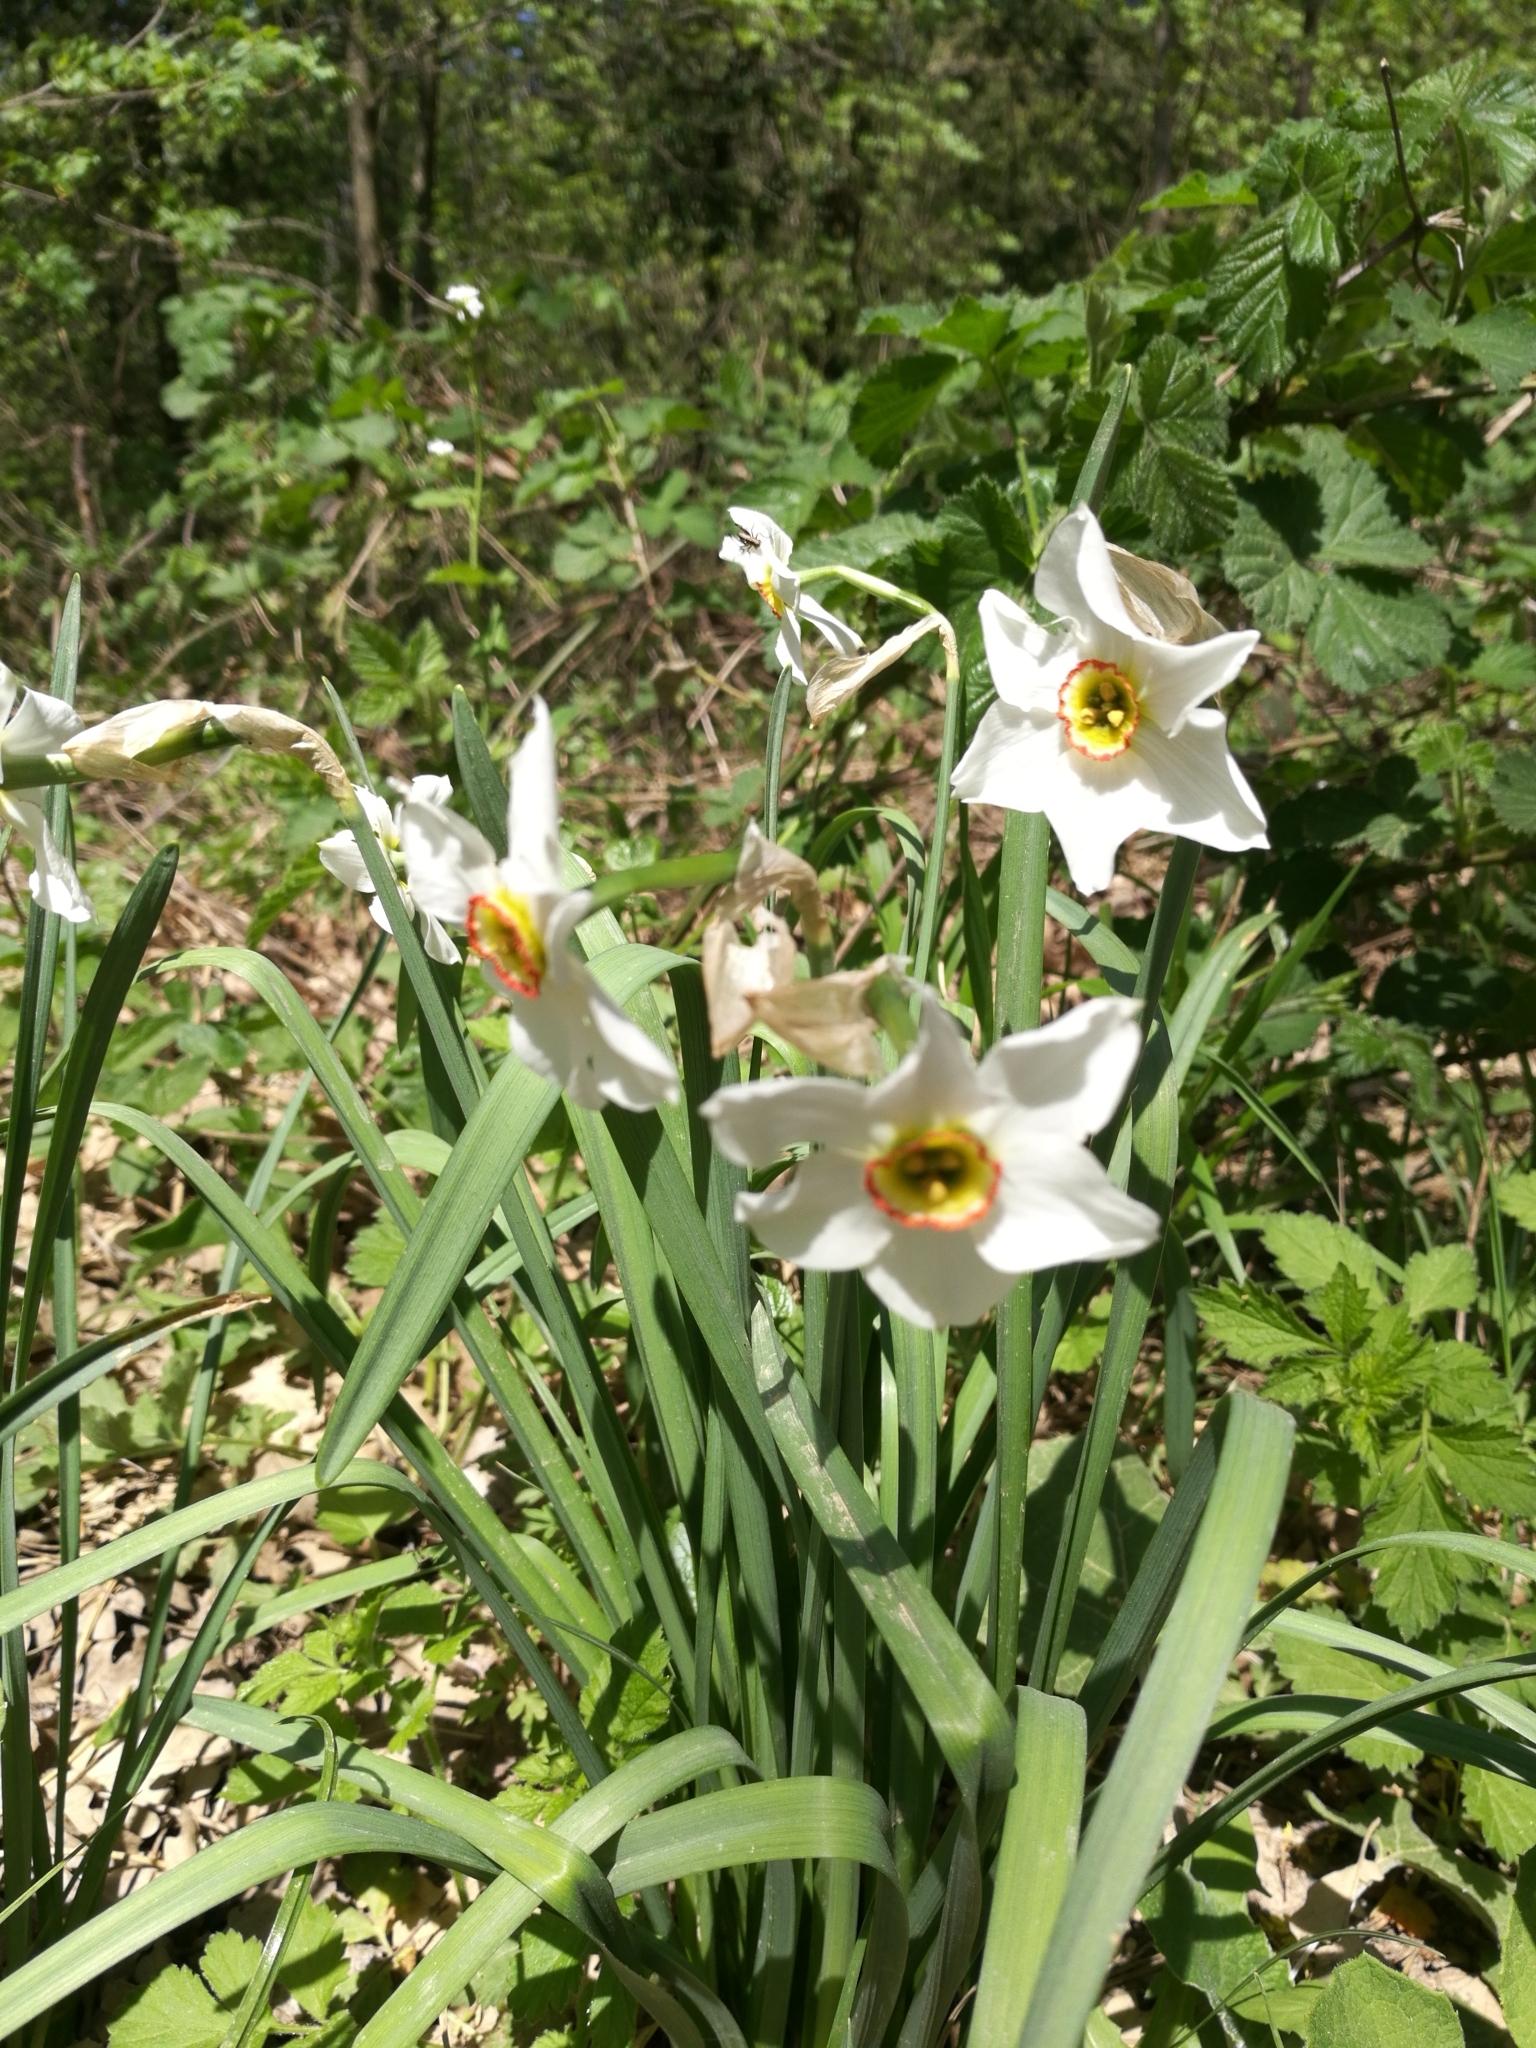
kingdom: Plantae
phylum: Tracheophyta
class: Liliopsida
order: Asparagales
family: Amaryllidaceae
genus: Narcissus
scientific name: Narcissus poeticus
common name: Pheasant's-eye daffodil
